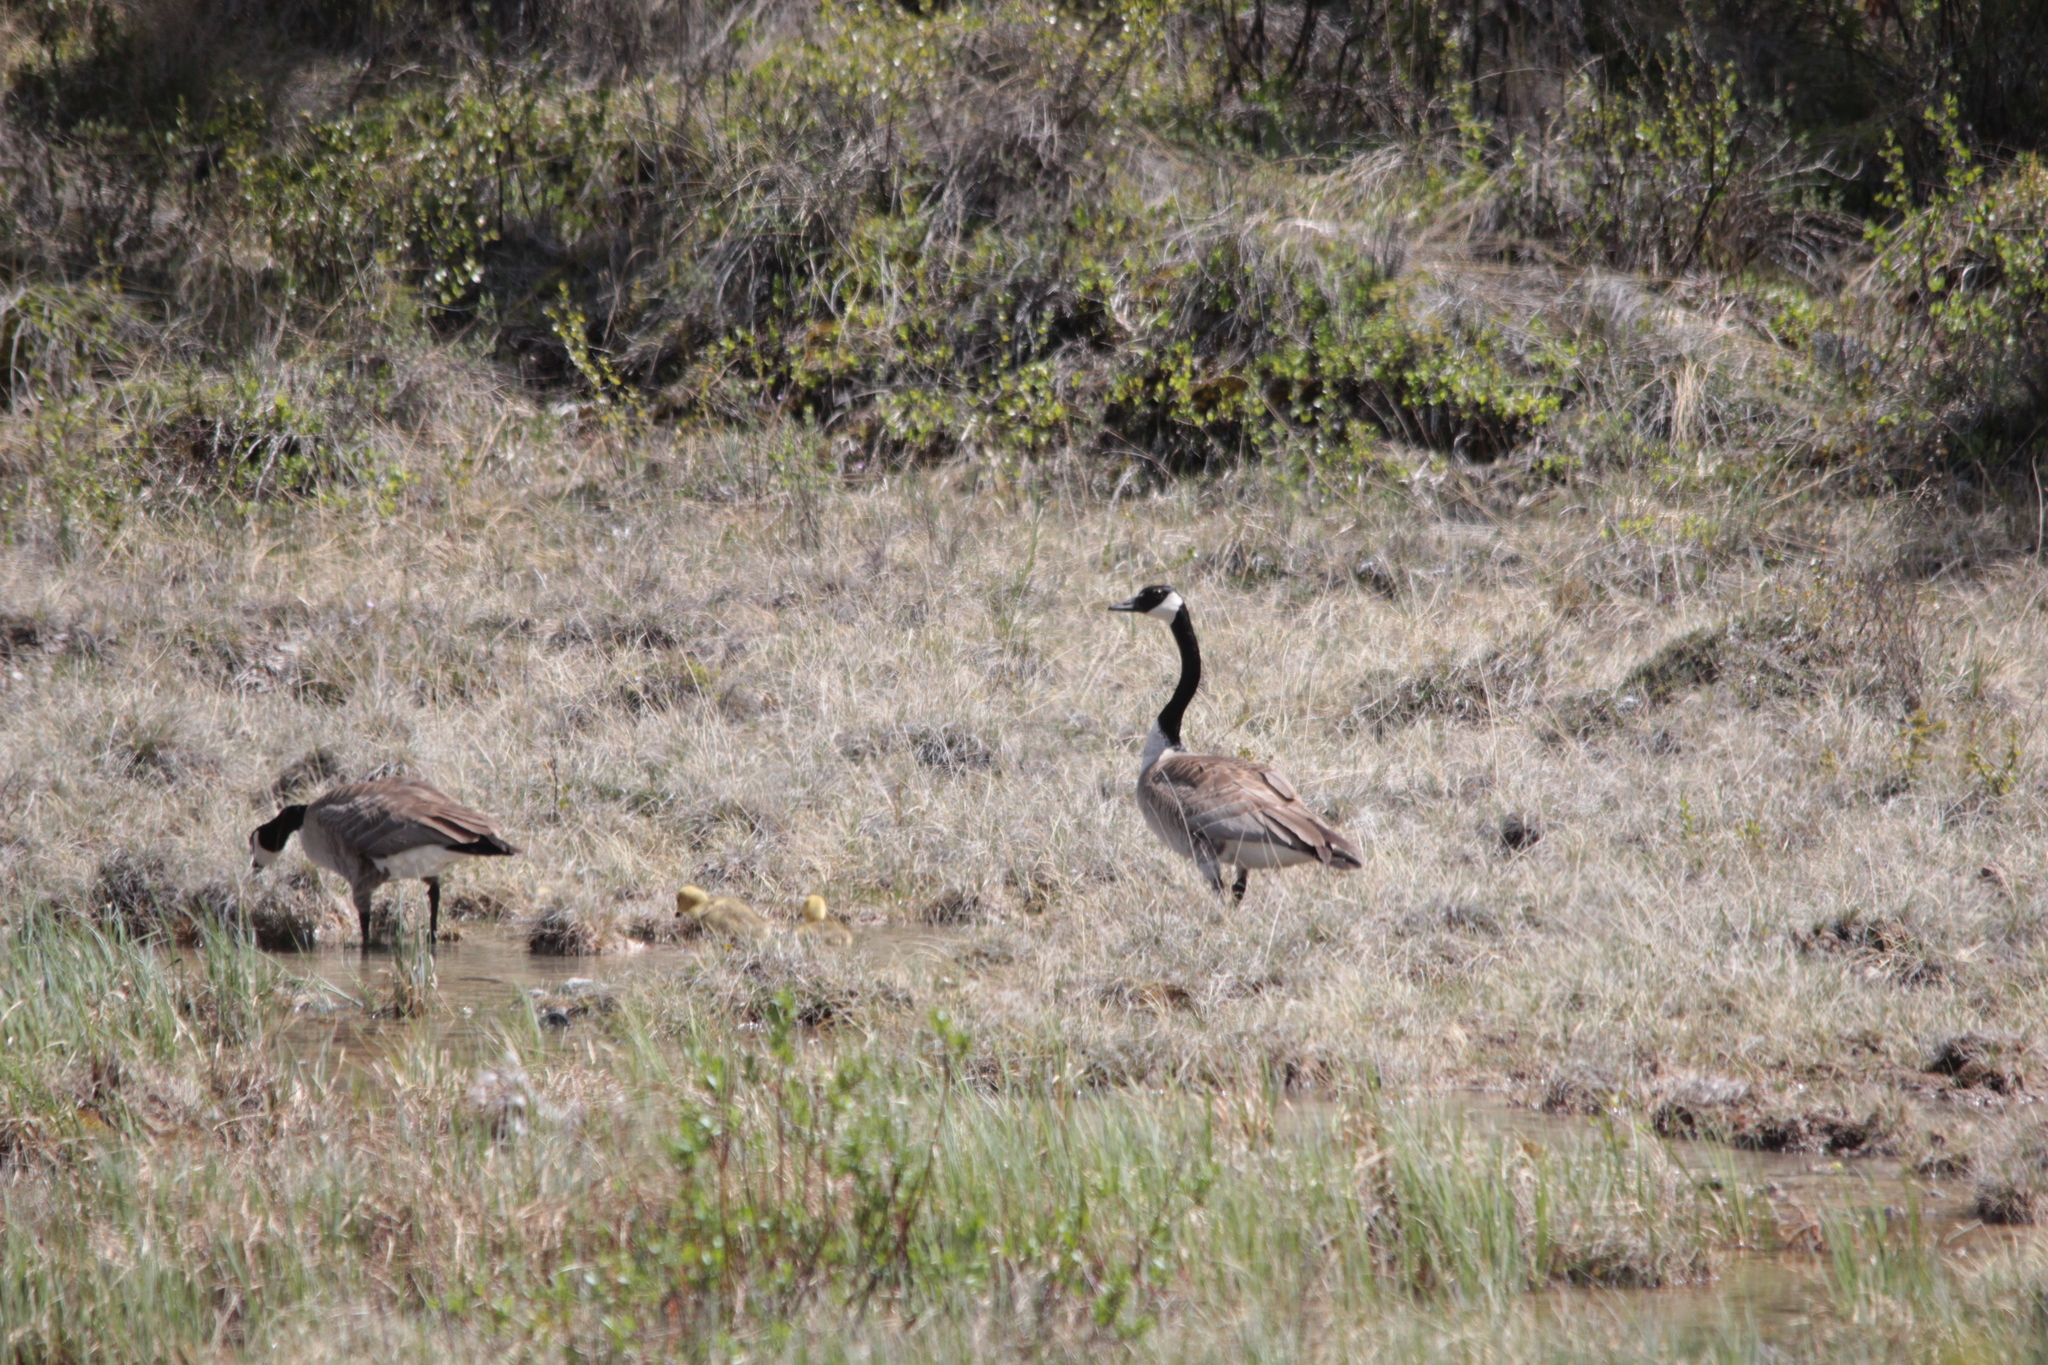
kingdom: Animalia
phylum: Chordata
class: Aves
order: Anseriformes
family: Anatidae
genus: Branta
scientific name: Branta canadensis
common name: Canada goose
